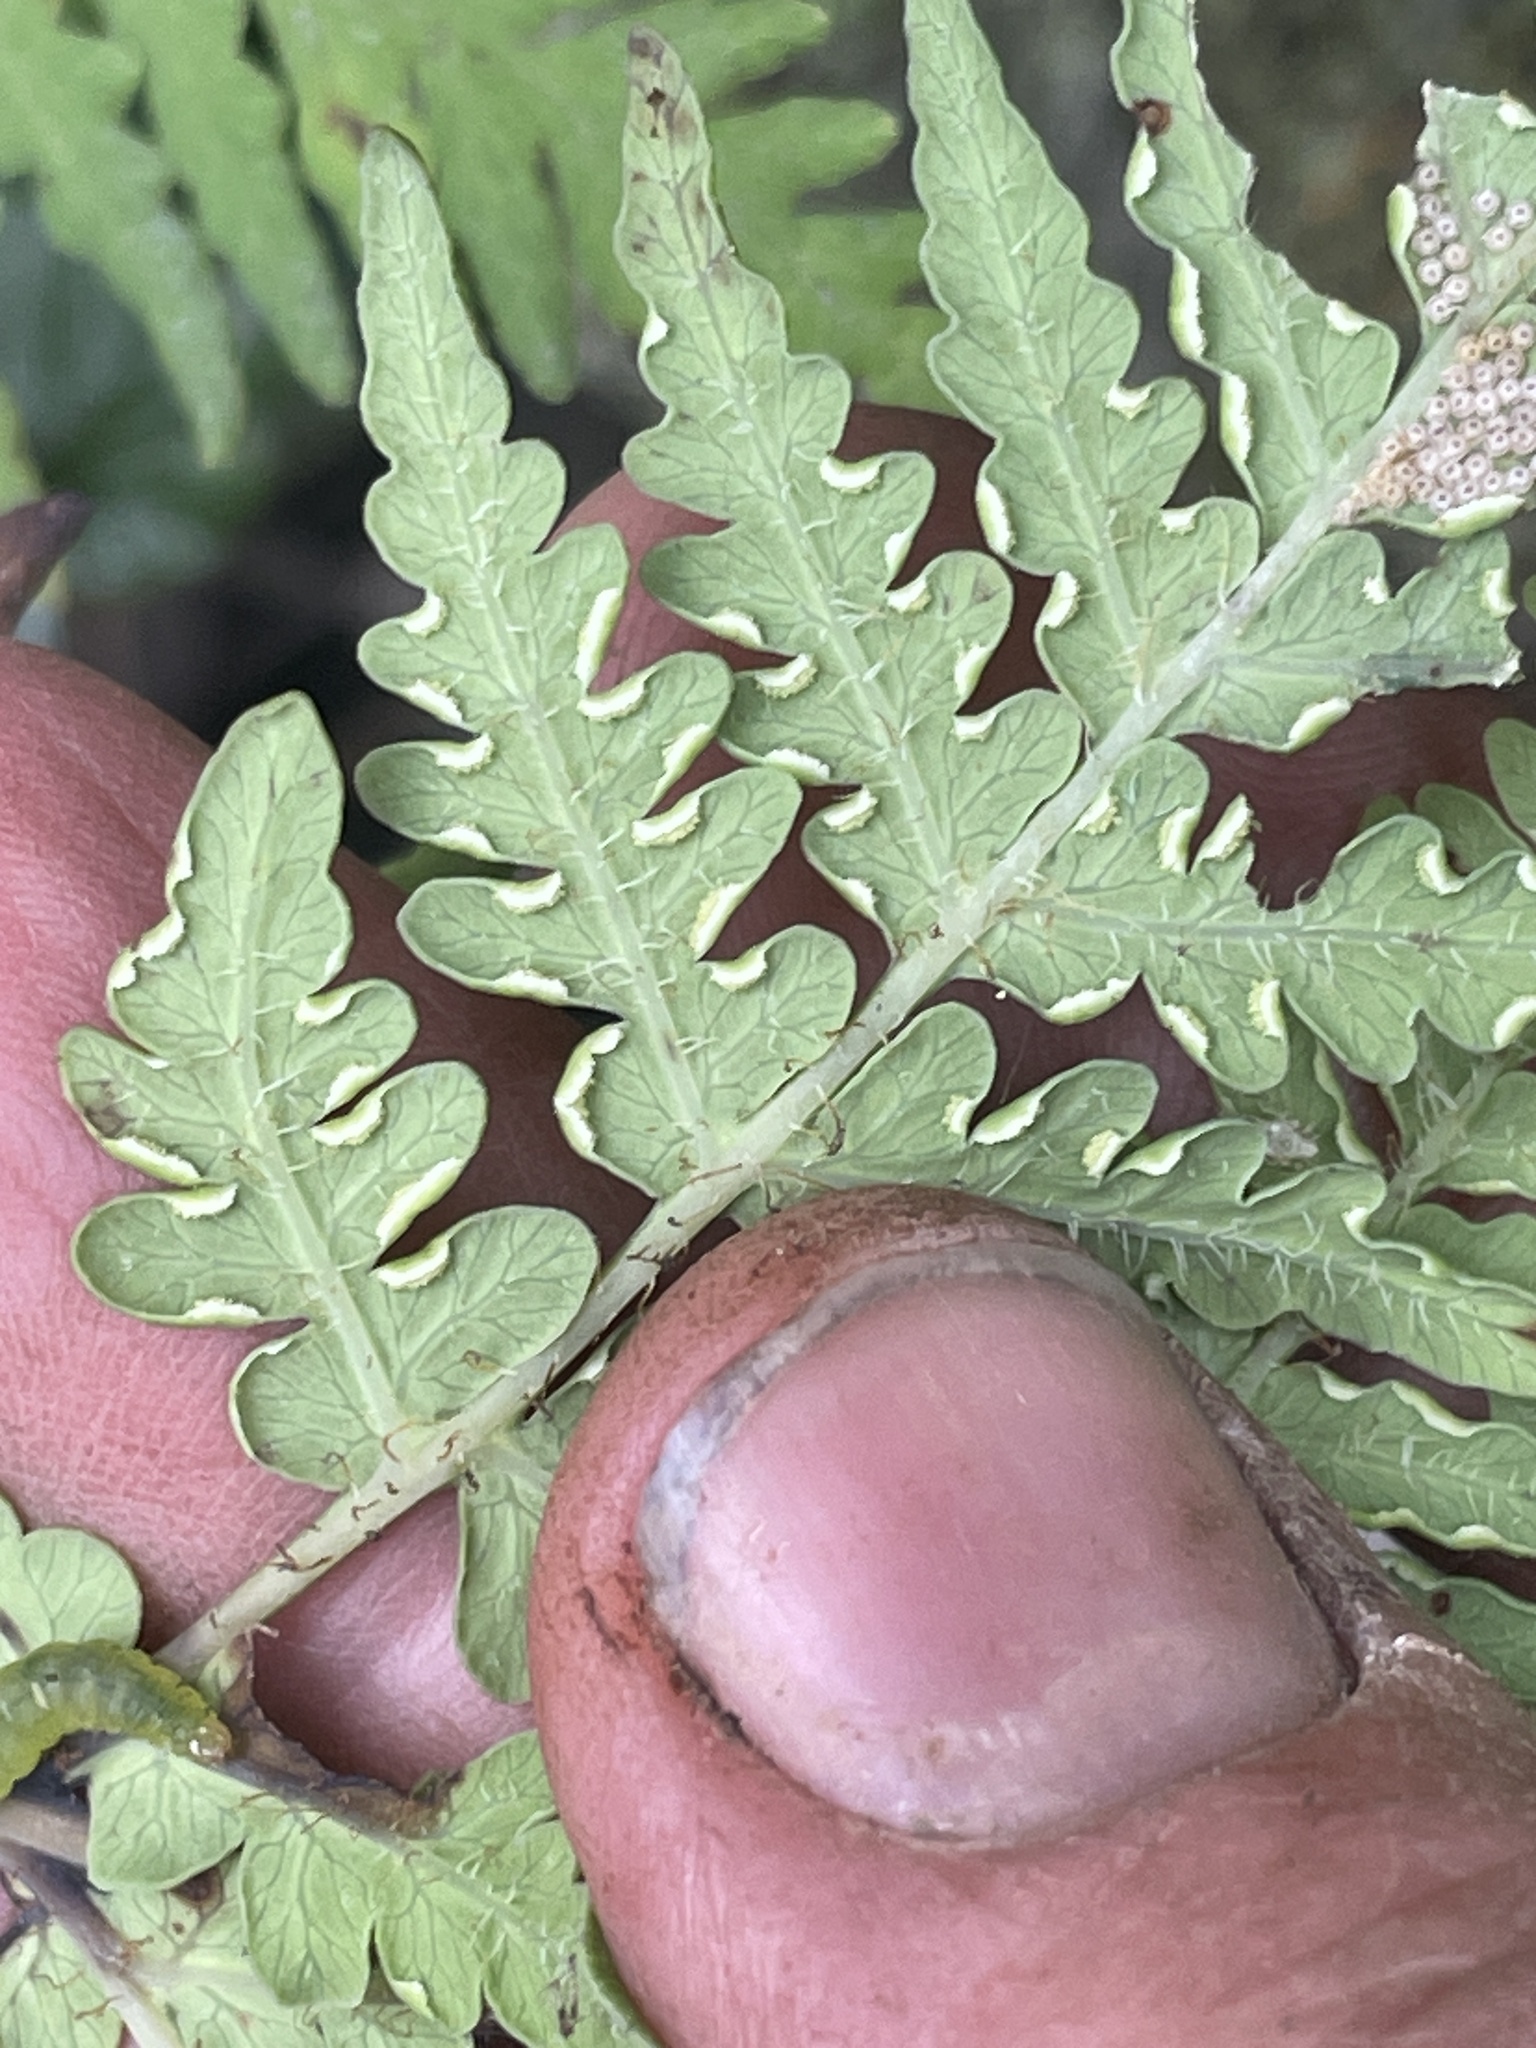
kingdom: Plantae
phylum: Tracheophyta
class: Polypodiopsida
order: Polypodiales
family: Dennstaedtiaceae
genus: Histiopteris
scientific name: Histiopteris incisa
